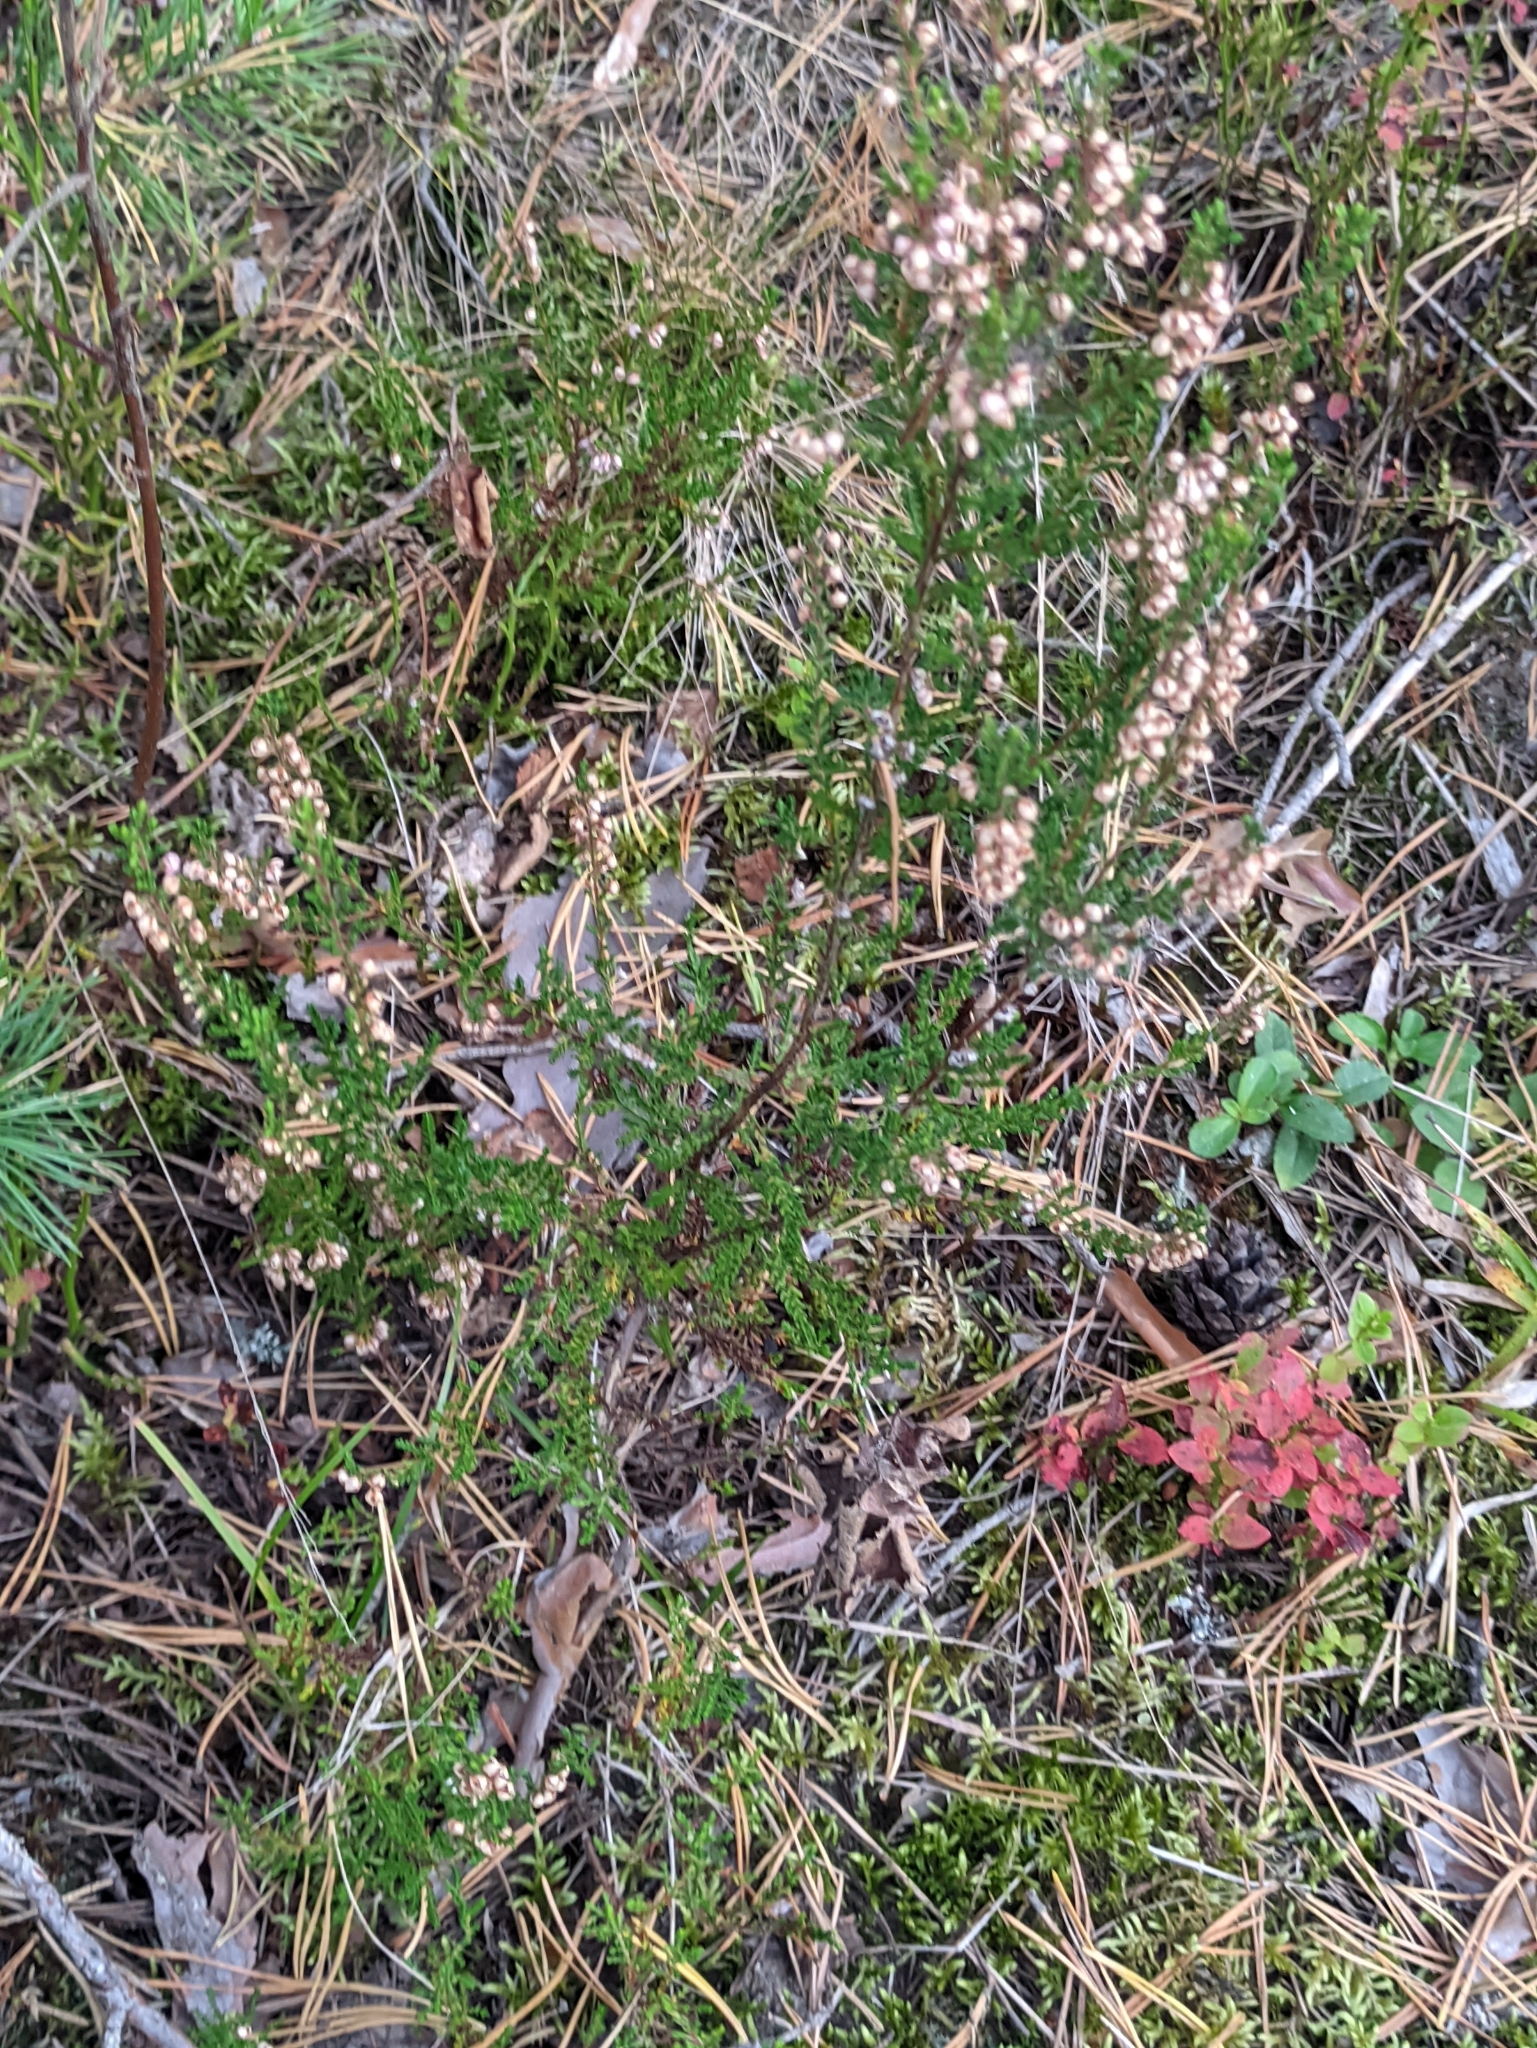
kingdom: Plantae
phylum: Tracheophyta
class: Magnoliopsida
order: Ericales
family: Ericaceae
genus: Calluna
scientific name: Calluna vulgaris
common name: Heather
